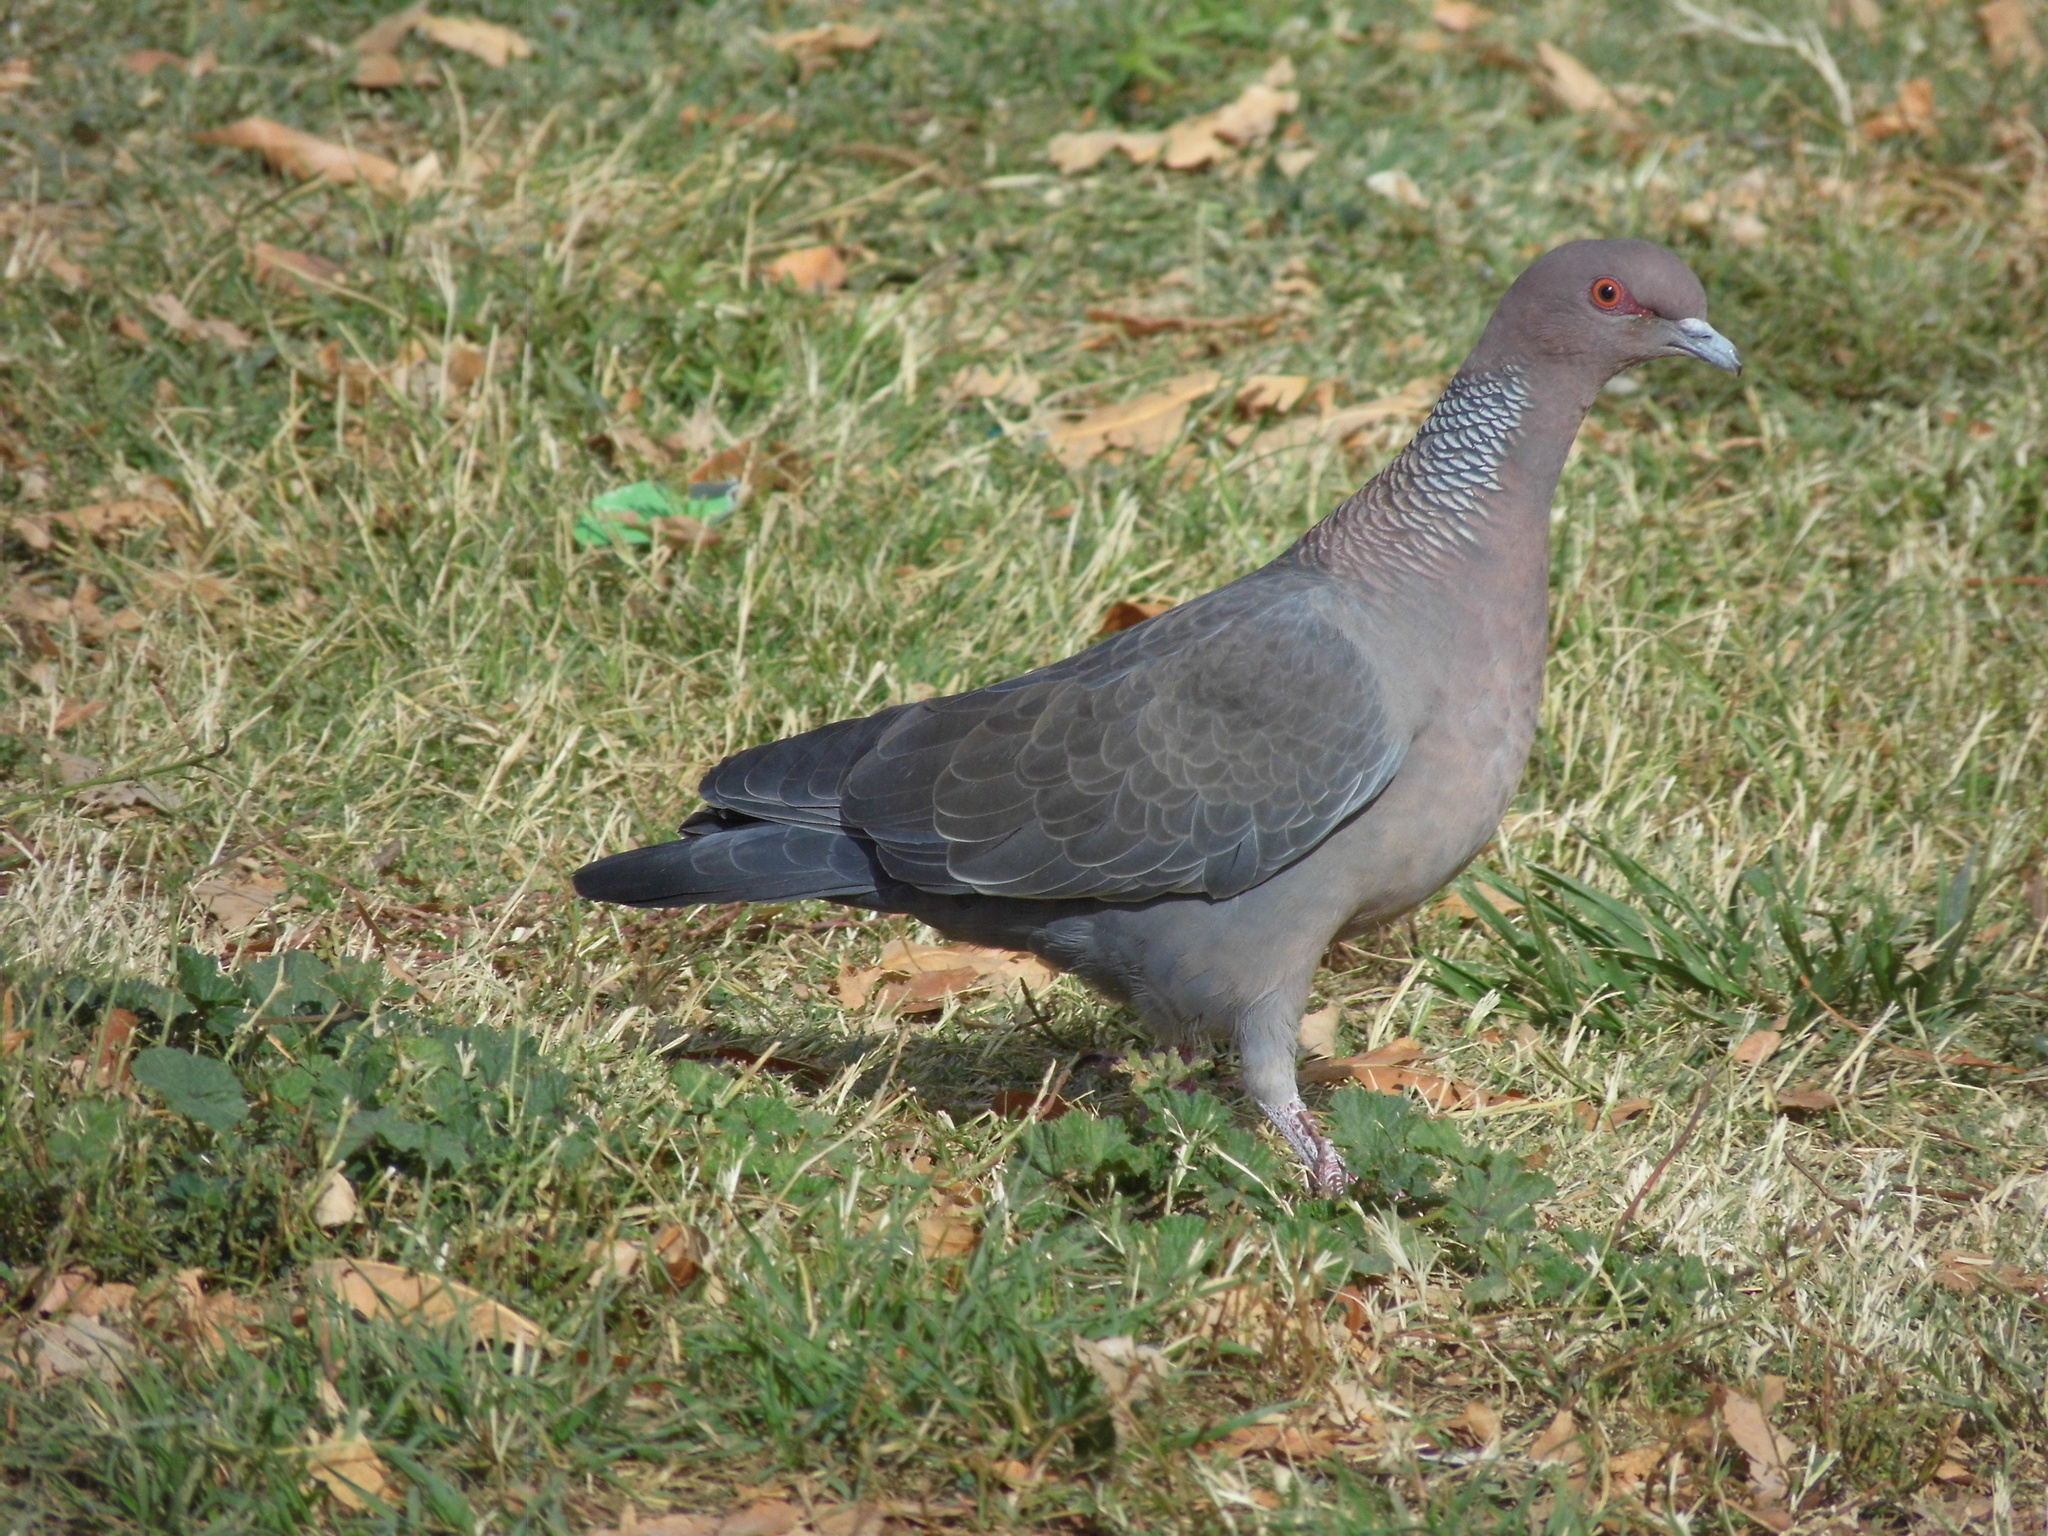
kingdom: Animalia
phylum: Chordata
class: Aves
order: Columbiformes
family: Columbidae
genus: Patagioenas
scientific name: Patagioenas picazuro
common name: Picazuro pigeon
